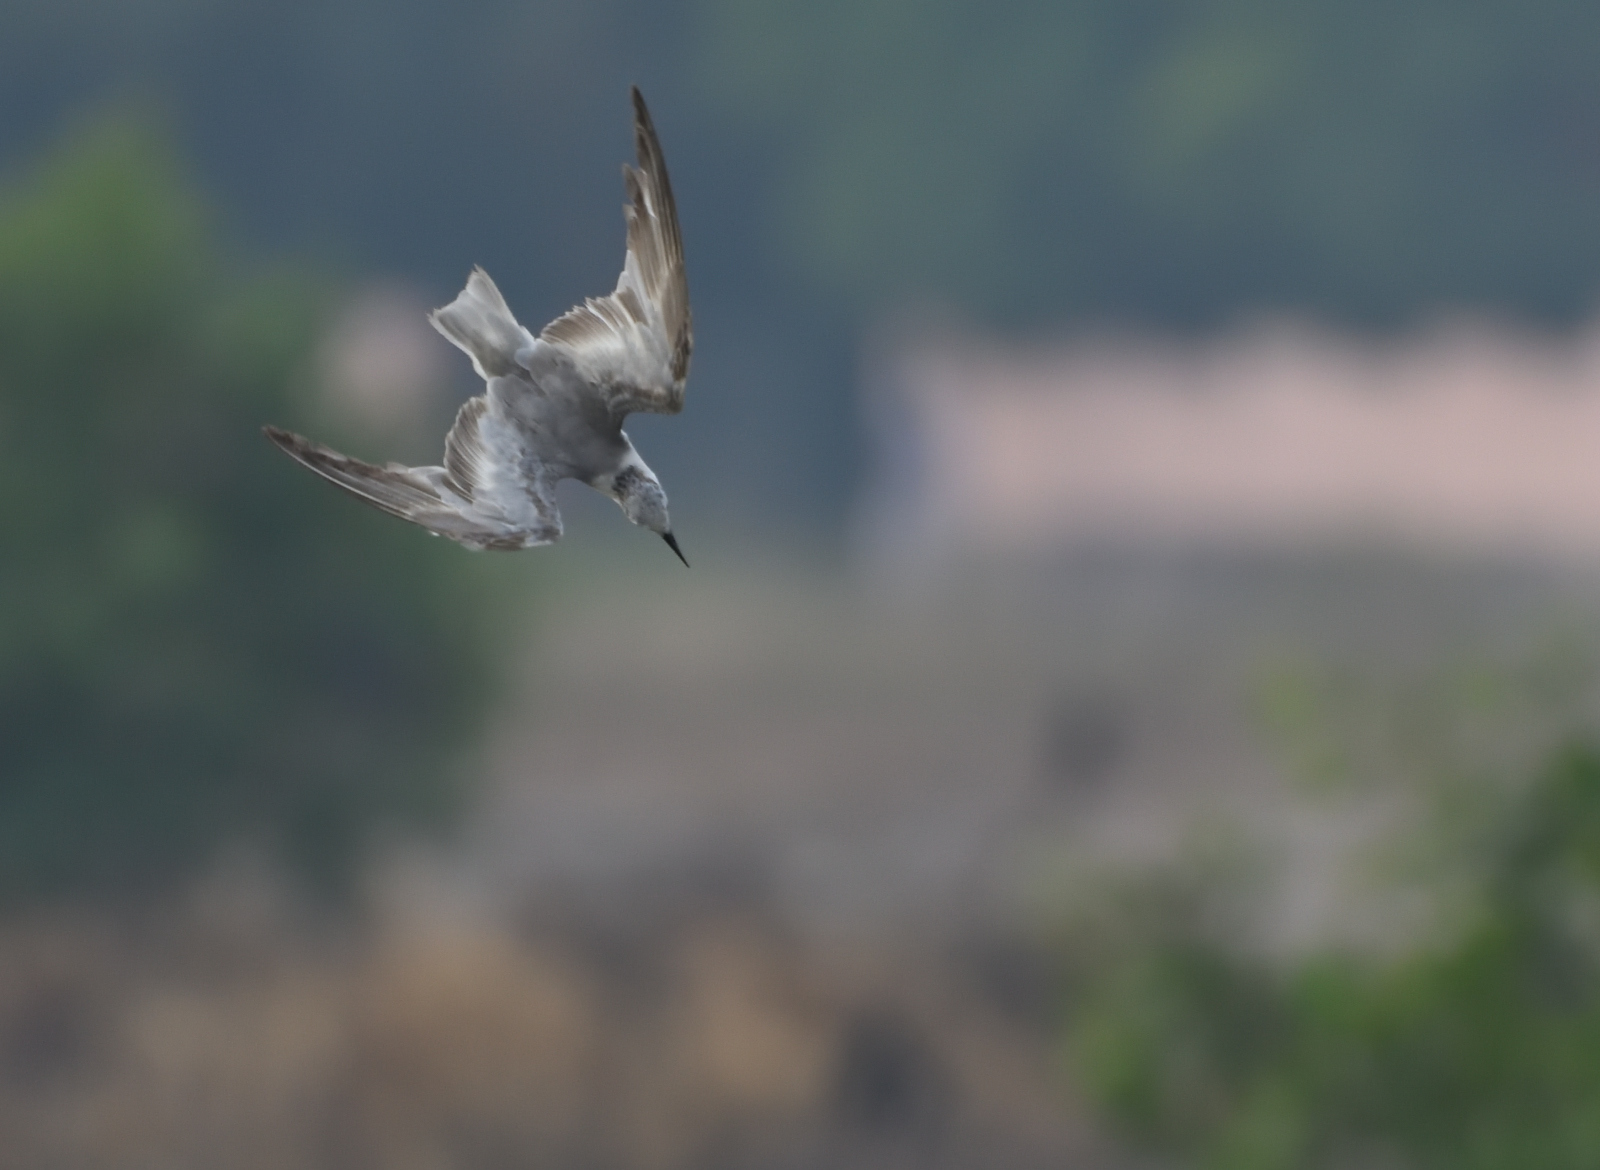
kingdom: Animalia
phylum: Chordata
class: Aves
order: Charadriiformes
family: Laridae
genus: Chlidonias
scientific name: Chlidonias hybrida
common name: Whiskered tern
